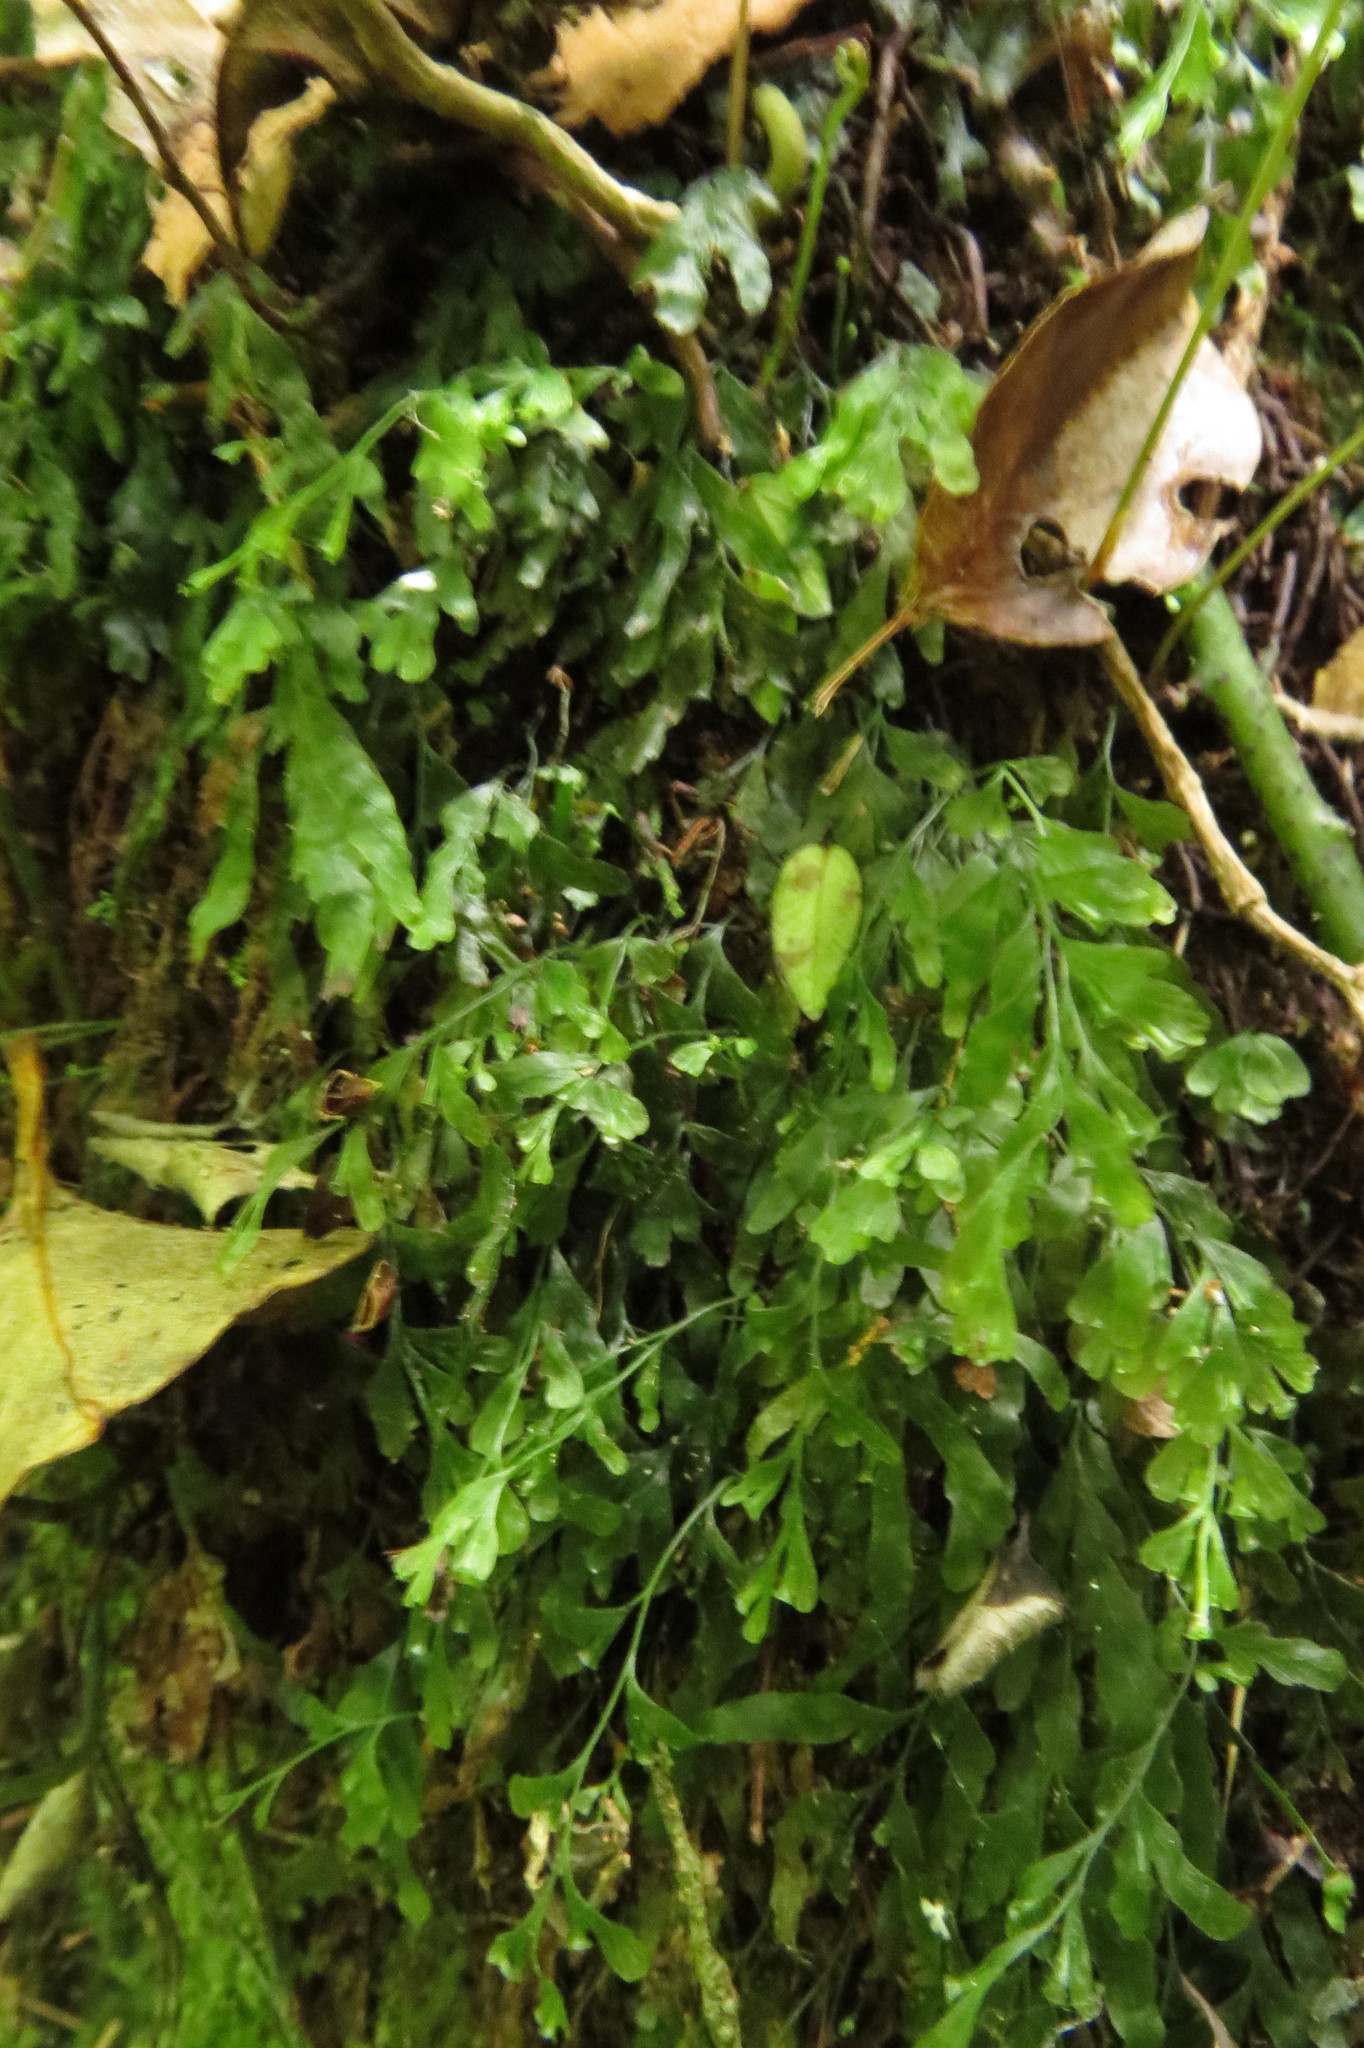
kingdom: Plantae
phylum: Tracheophyta
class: Polypodiopsida
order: Hymenophyllales
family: Hymenophyllaceae
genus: Polyphlebium
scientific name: Polyphlebium venosum
